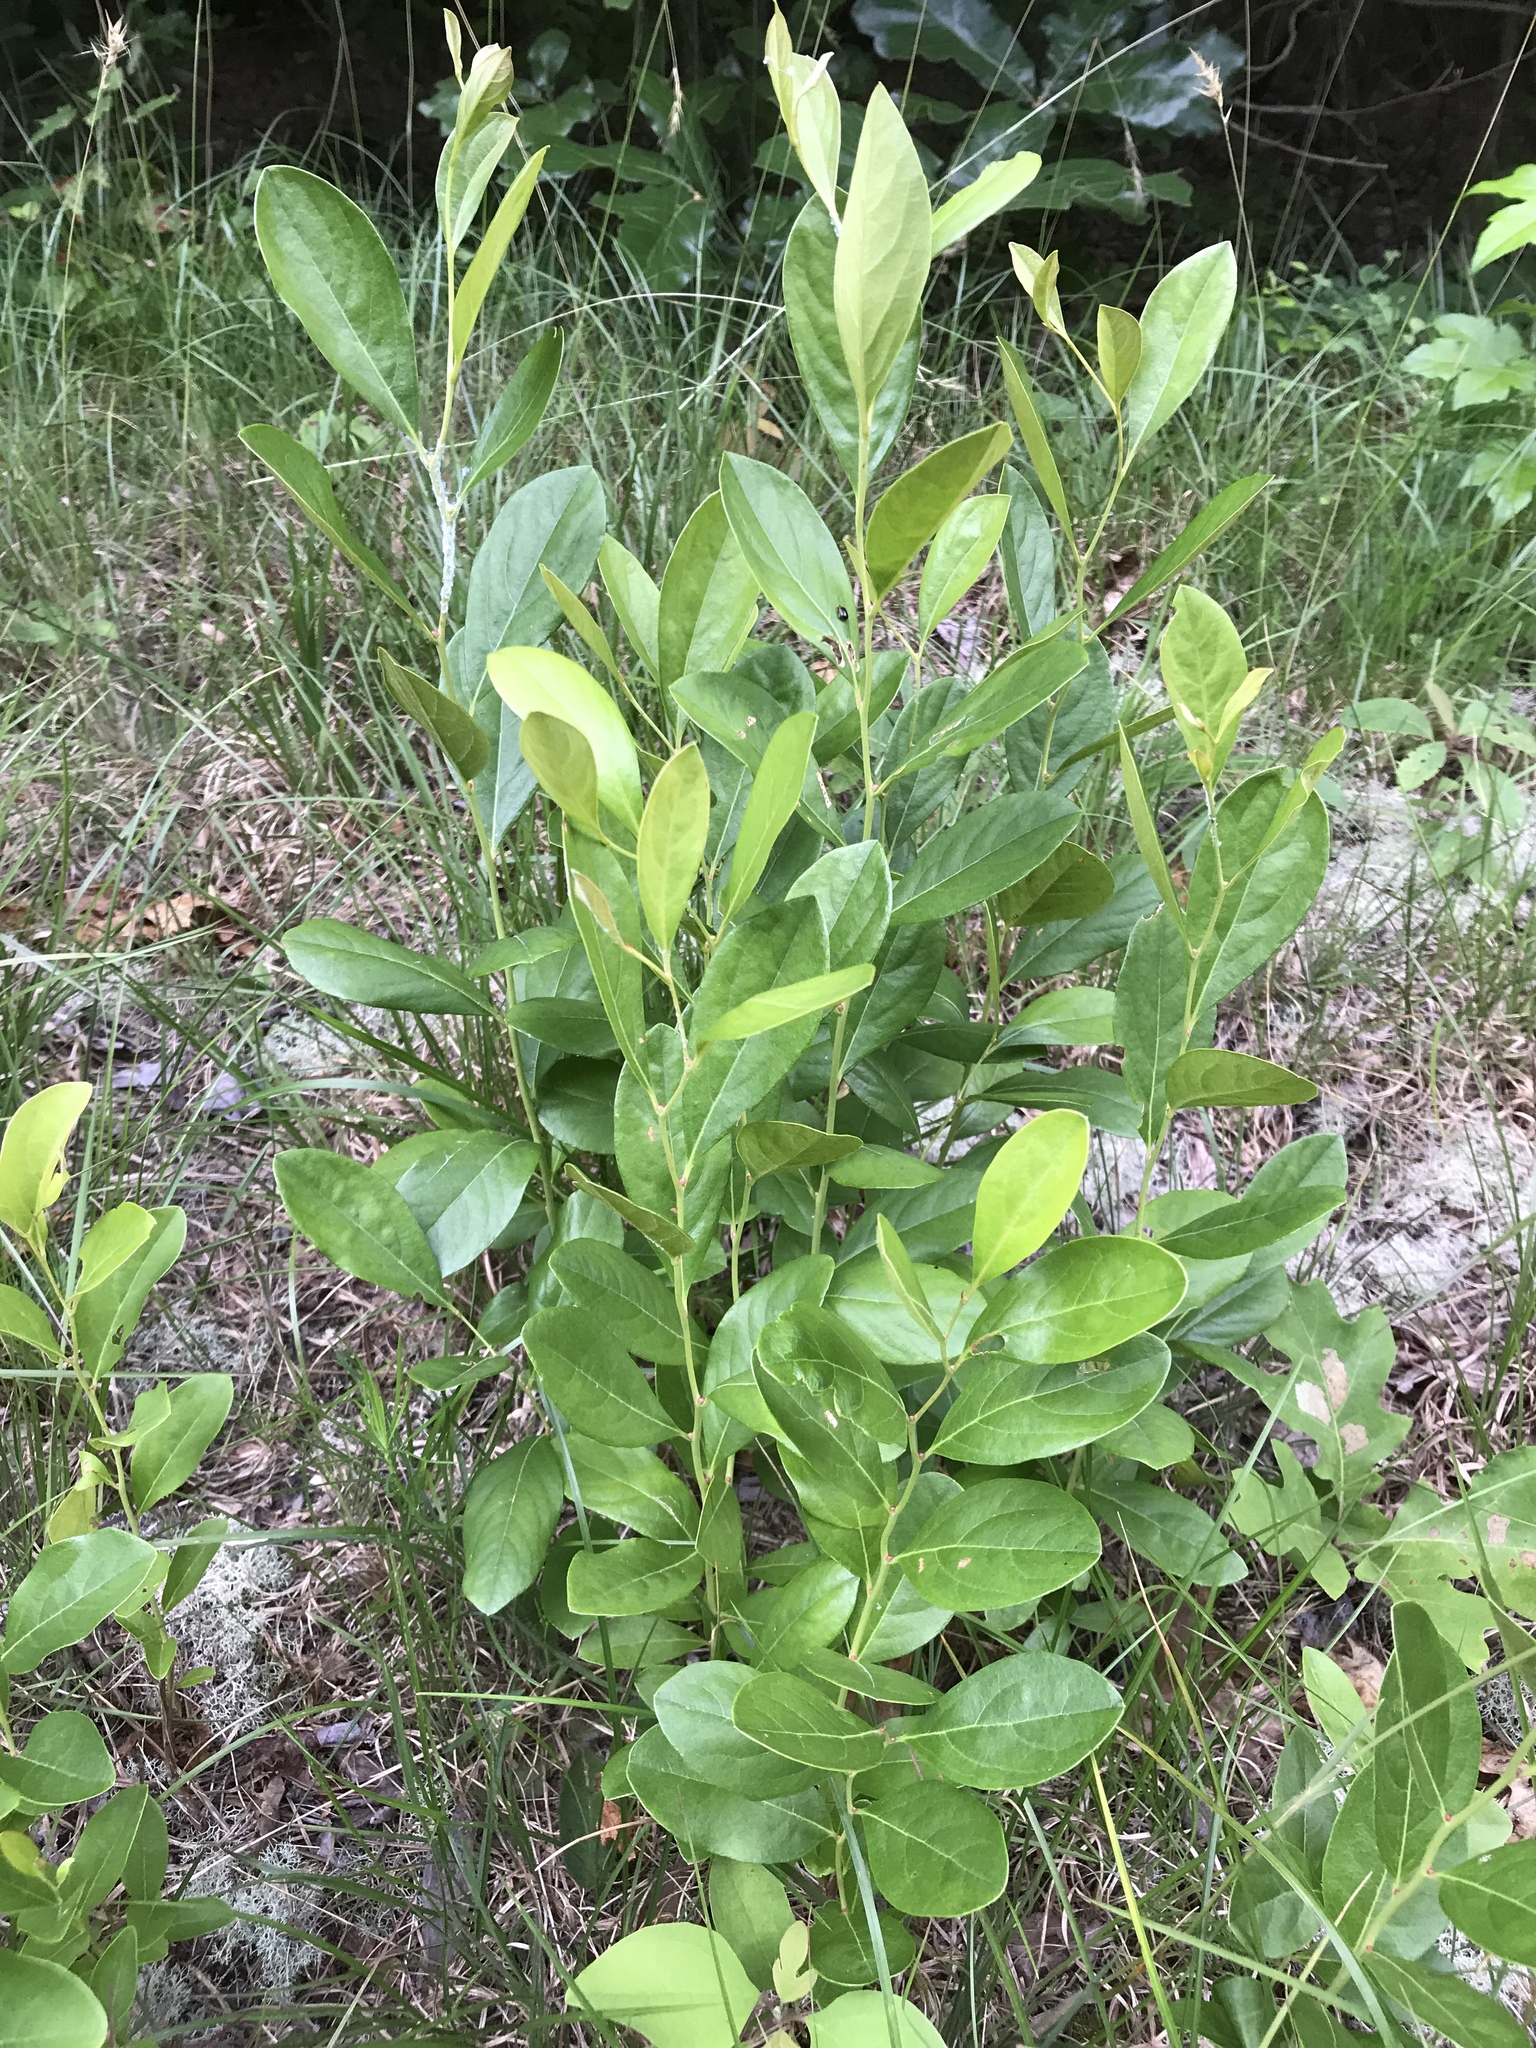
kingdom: Plantae
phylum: Tracheophyta
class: Magnoliopsida
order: Ericales
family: Ericaceae
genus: Lyonia
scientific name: Lyonia mariana
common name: Staggerbush
